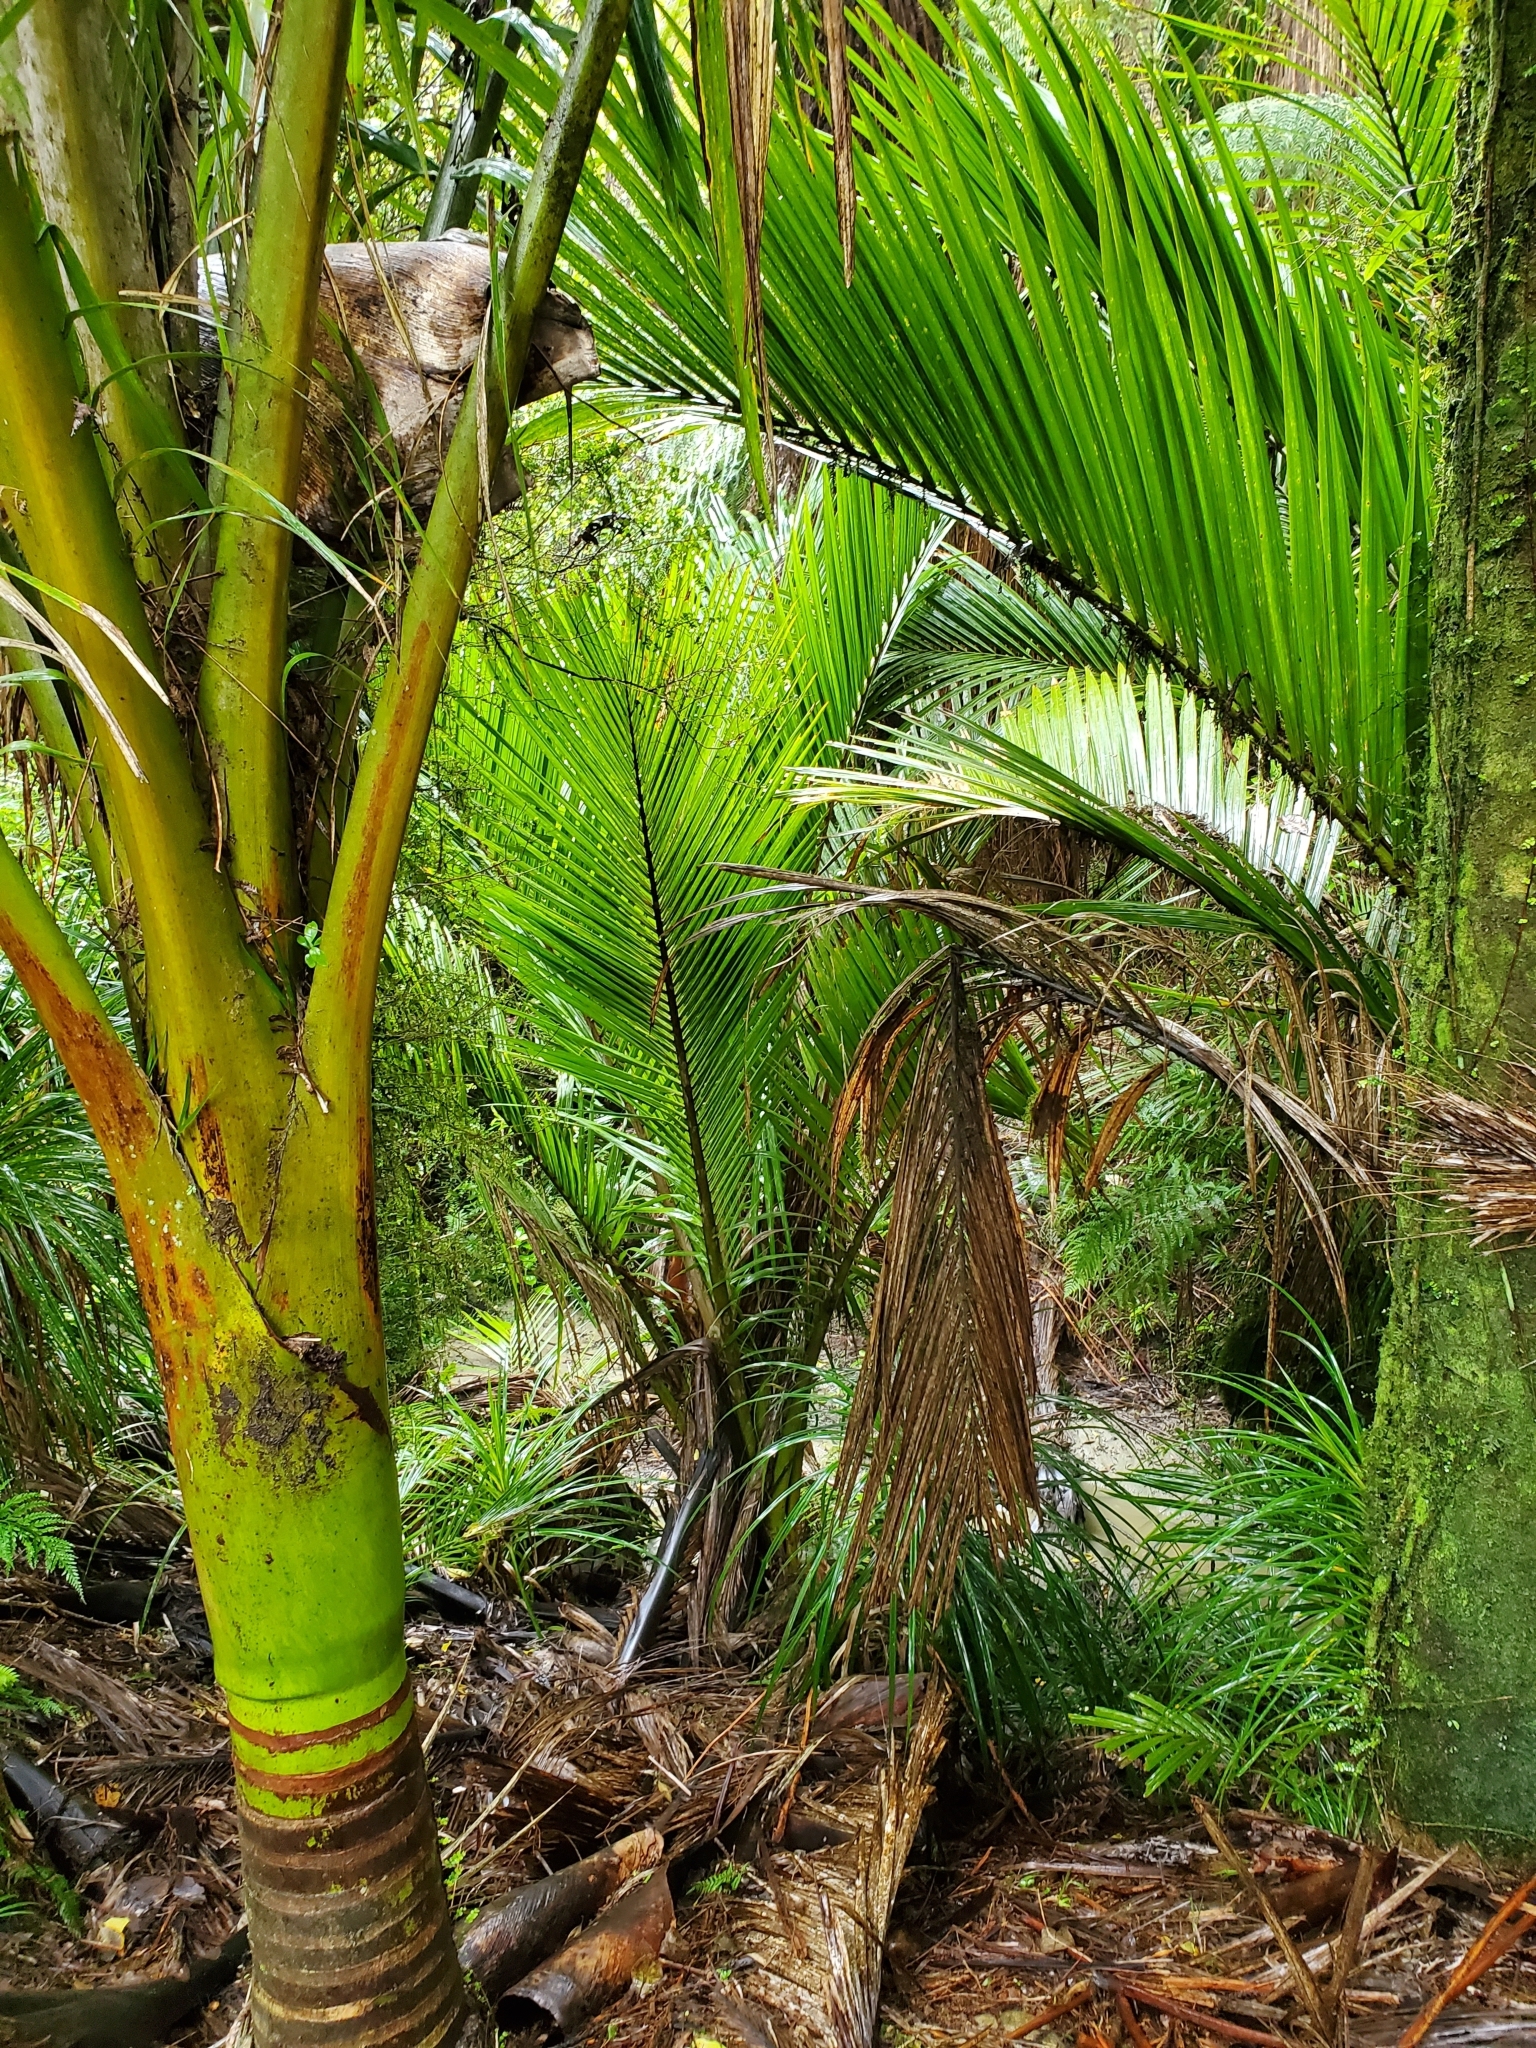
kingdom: Plantae
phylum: Tracheophyta
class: Liliopsida
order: Arecales
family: Arecaceae
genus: Rhopalostylis
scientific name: Rhopalostylis sapida
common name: Feather-duster palm
